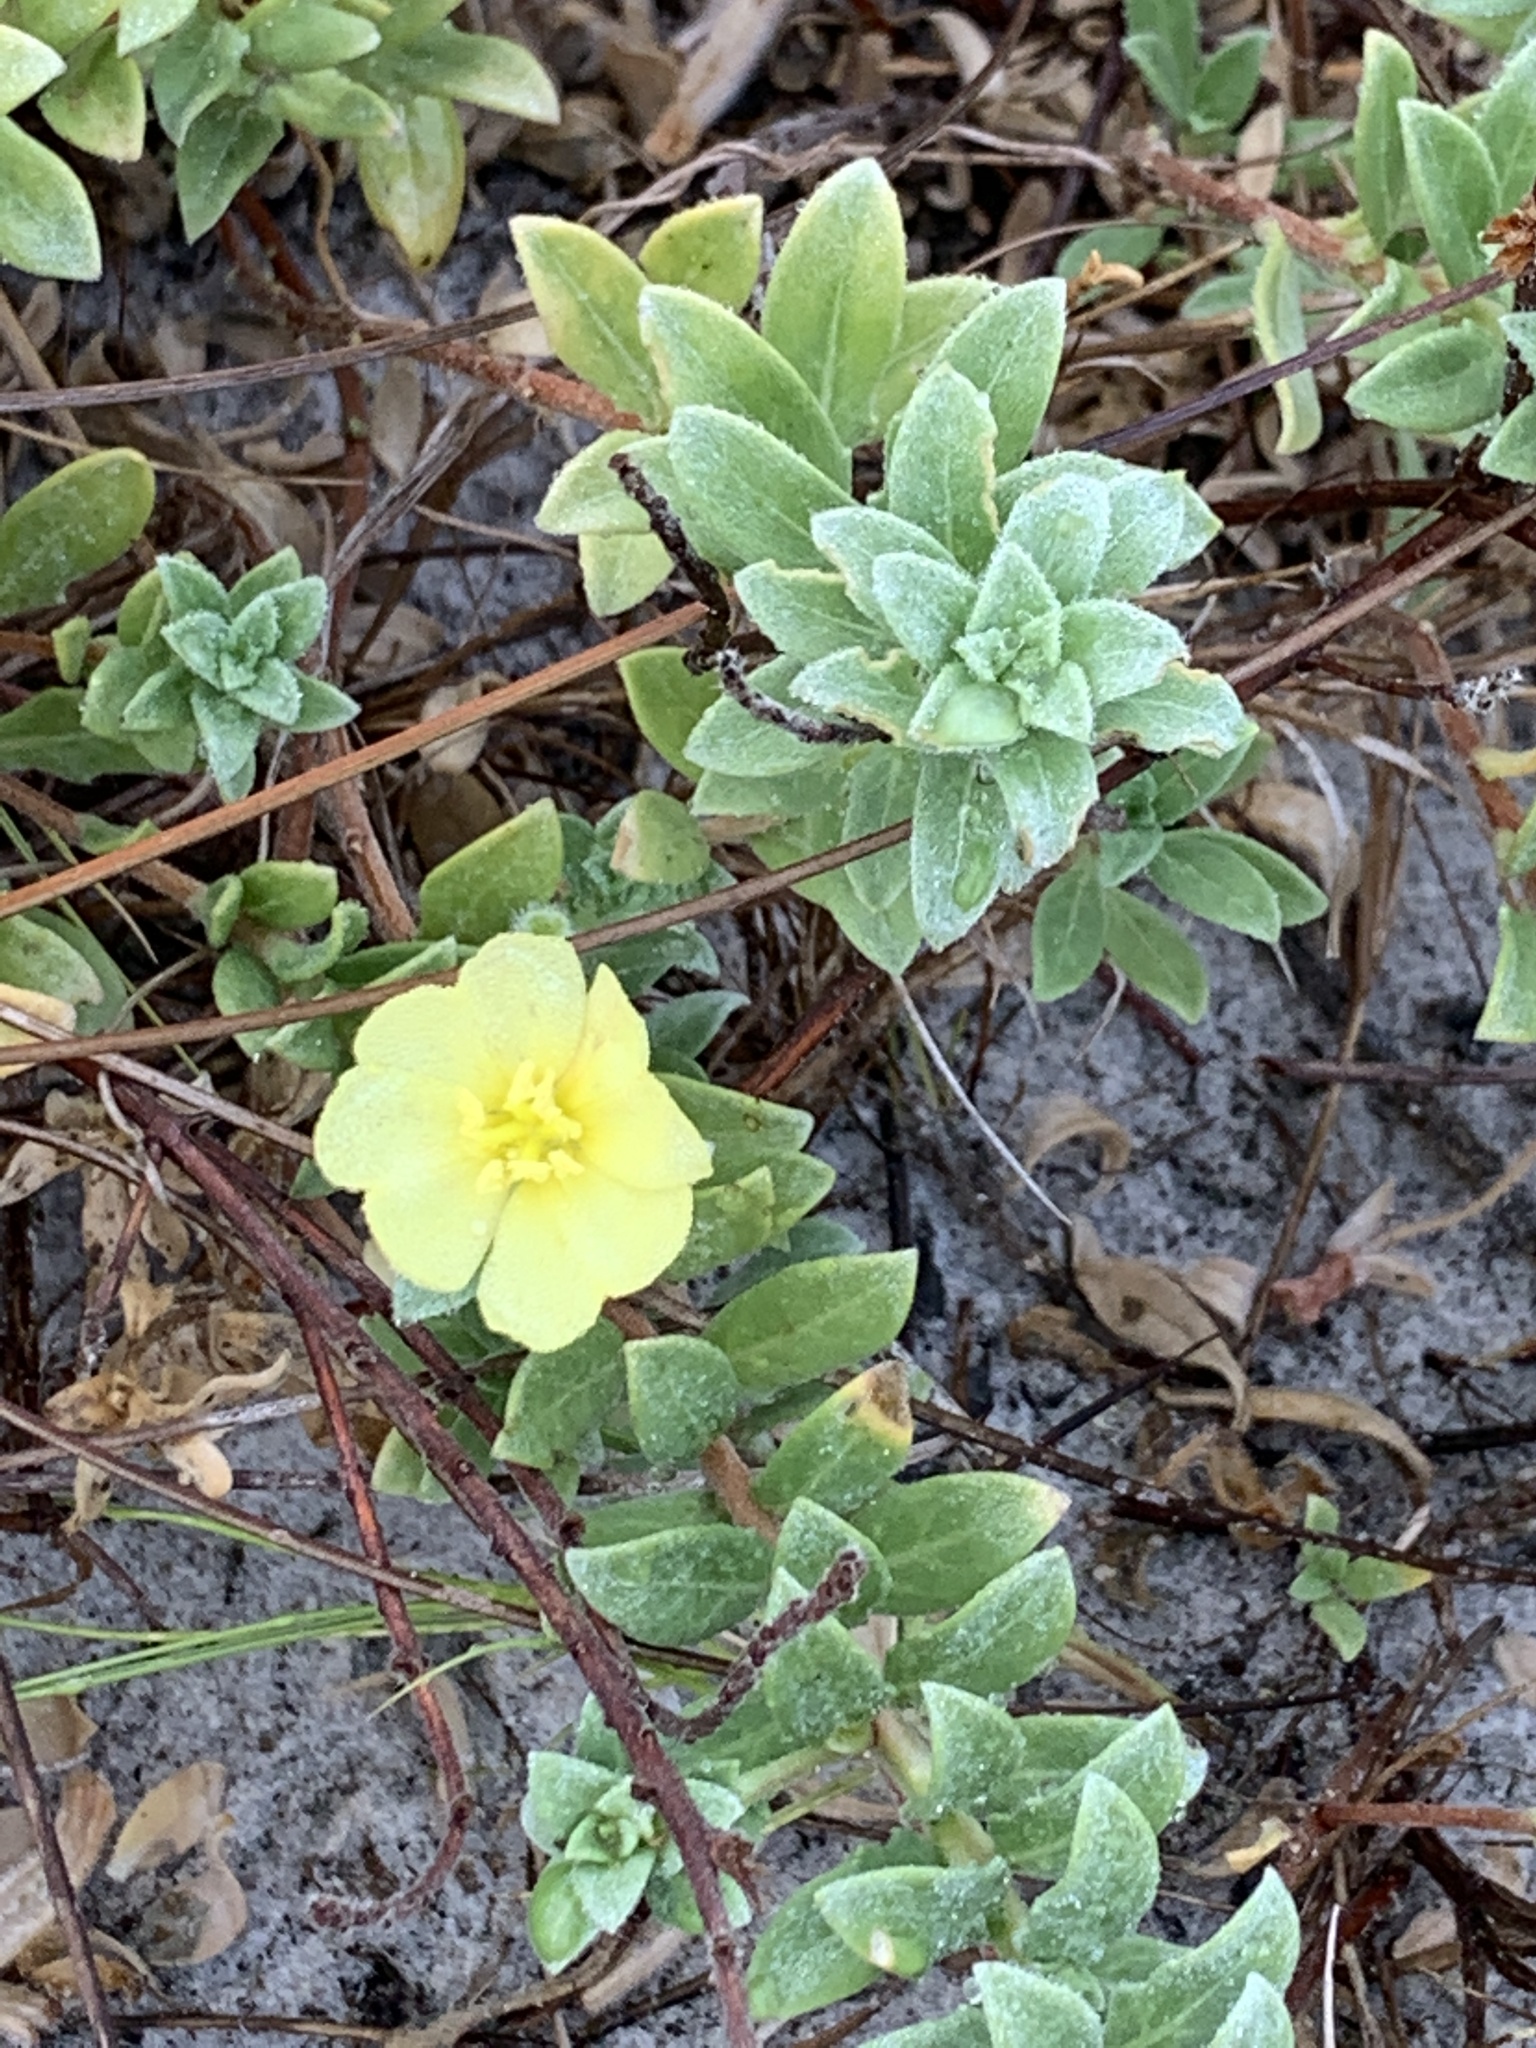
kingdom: Plantae
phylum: Tracheophyta
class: Magnoliopsida
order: Myrtales
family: Onagraceae
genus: Oenothera
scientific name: Oenothera humifusa
